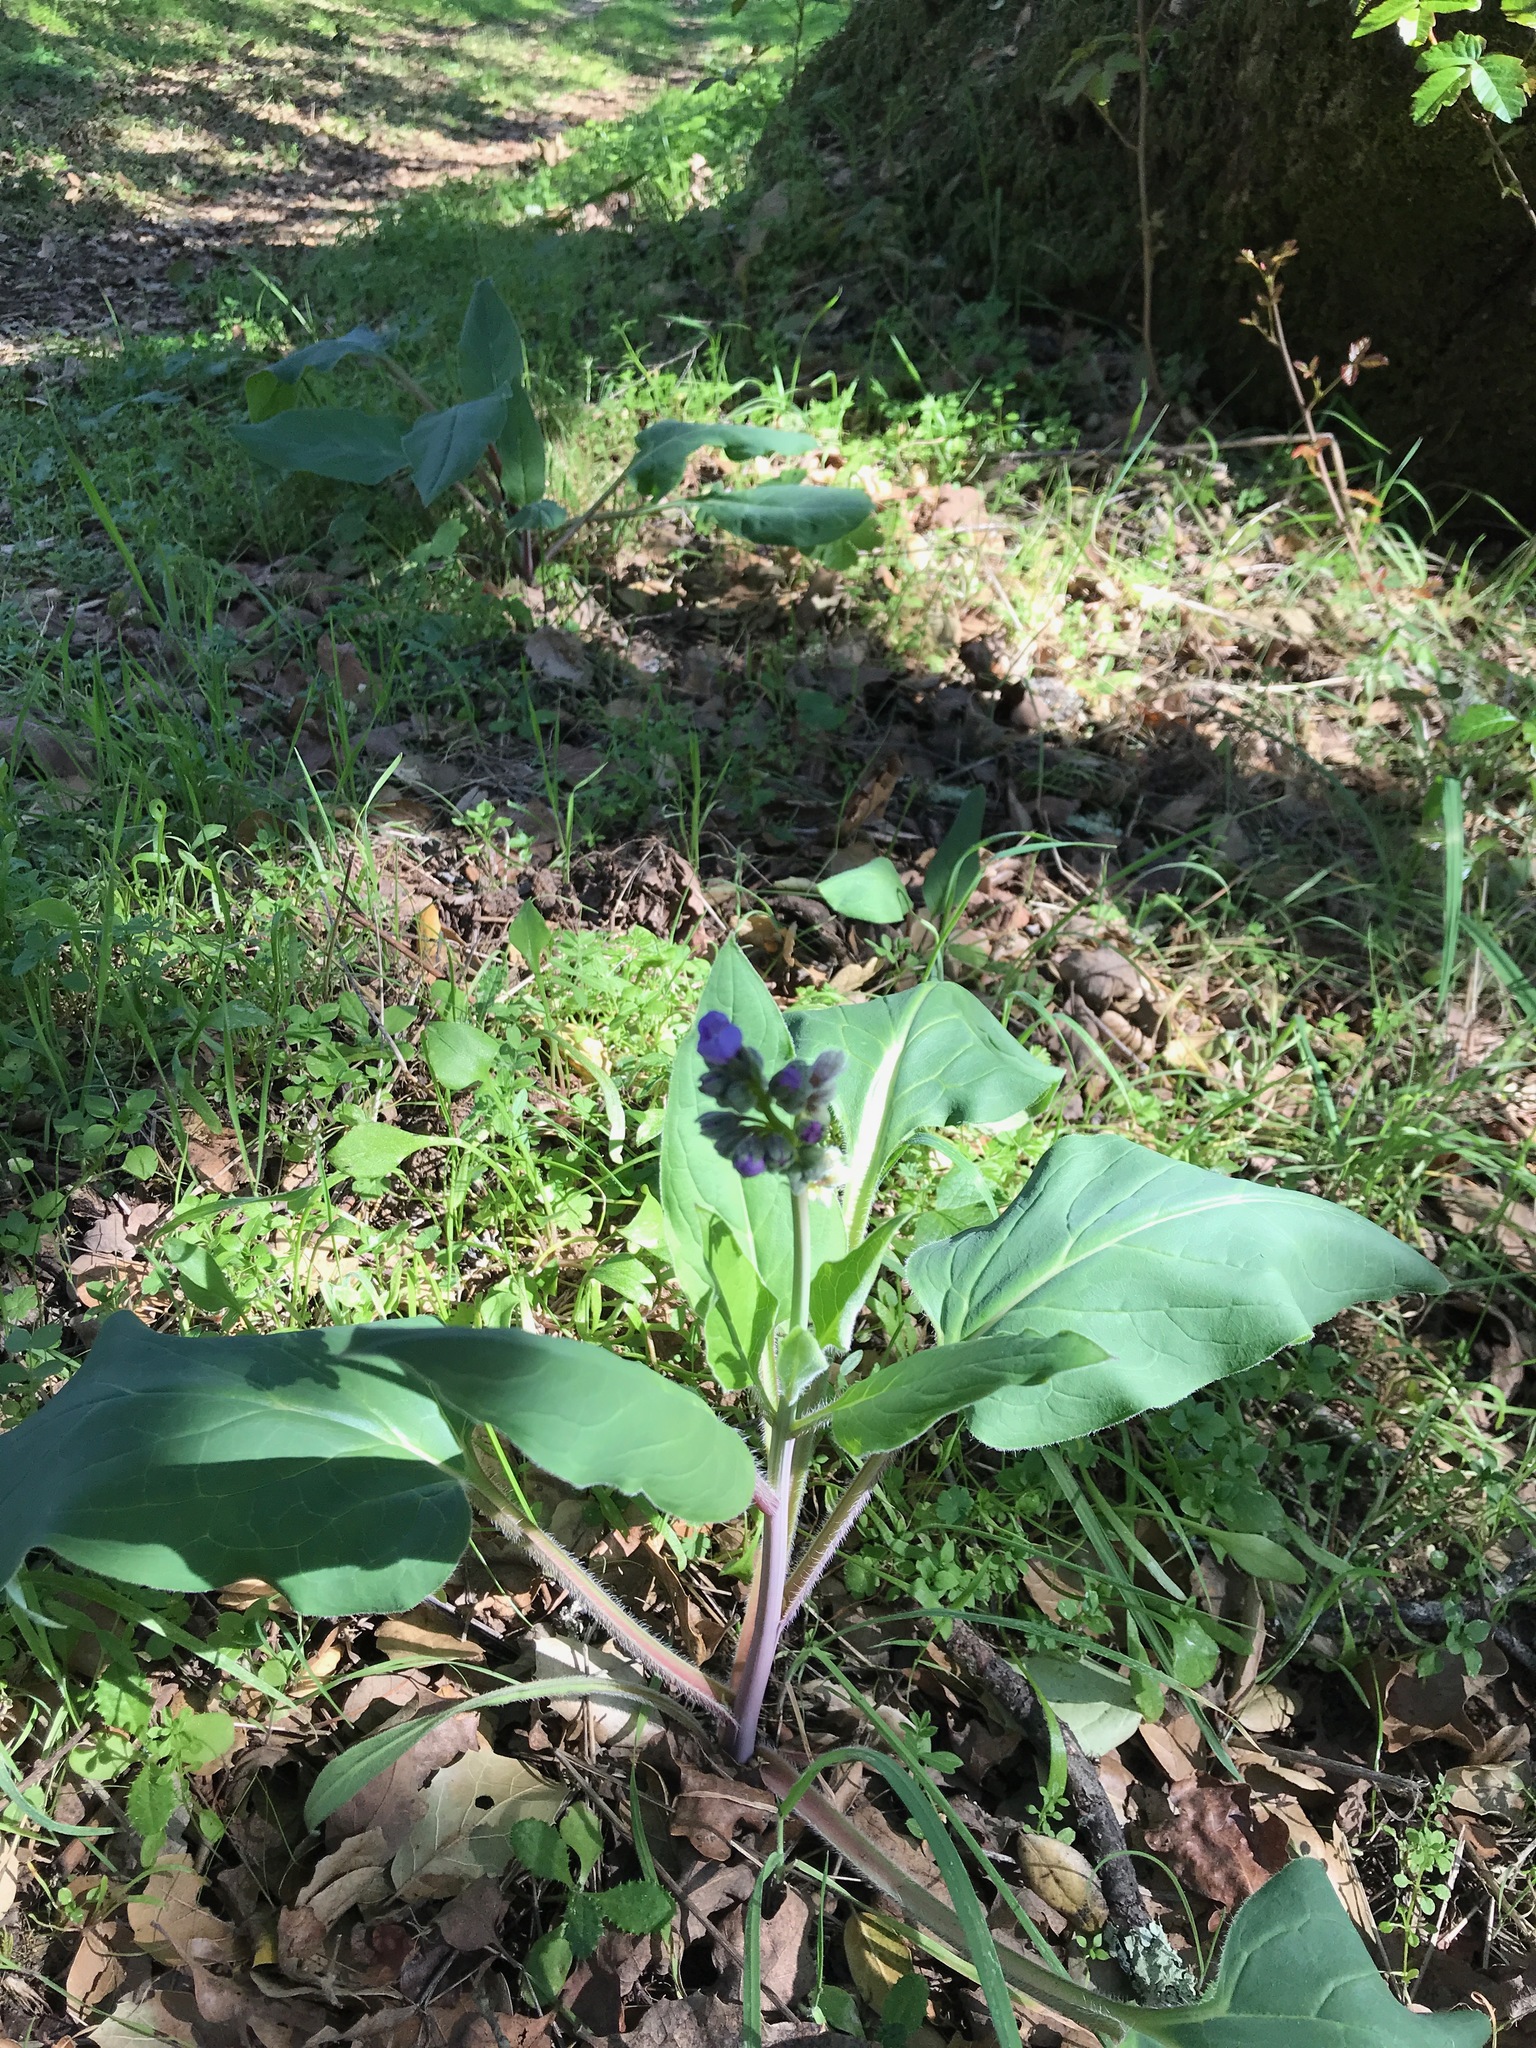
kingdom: Plantae
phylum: Tracheophyta
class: Magnoliopsida
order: Boraginales
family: Boraginaceae
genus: Adelinia
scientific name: Adelinia grande
